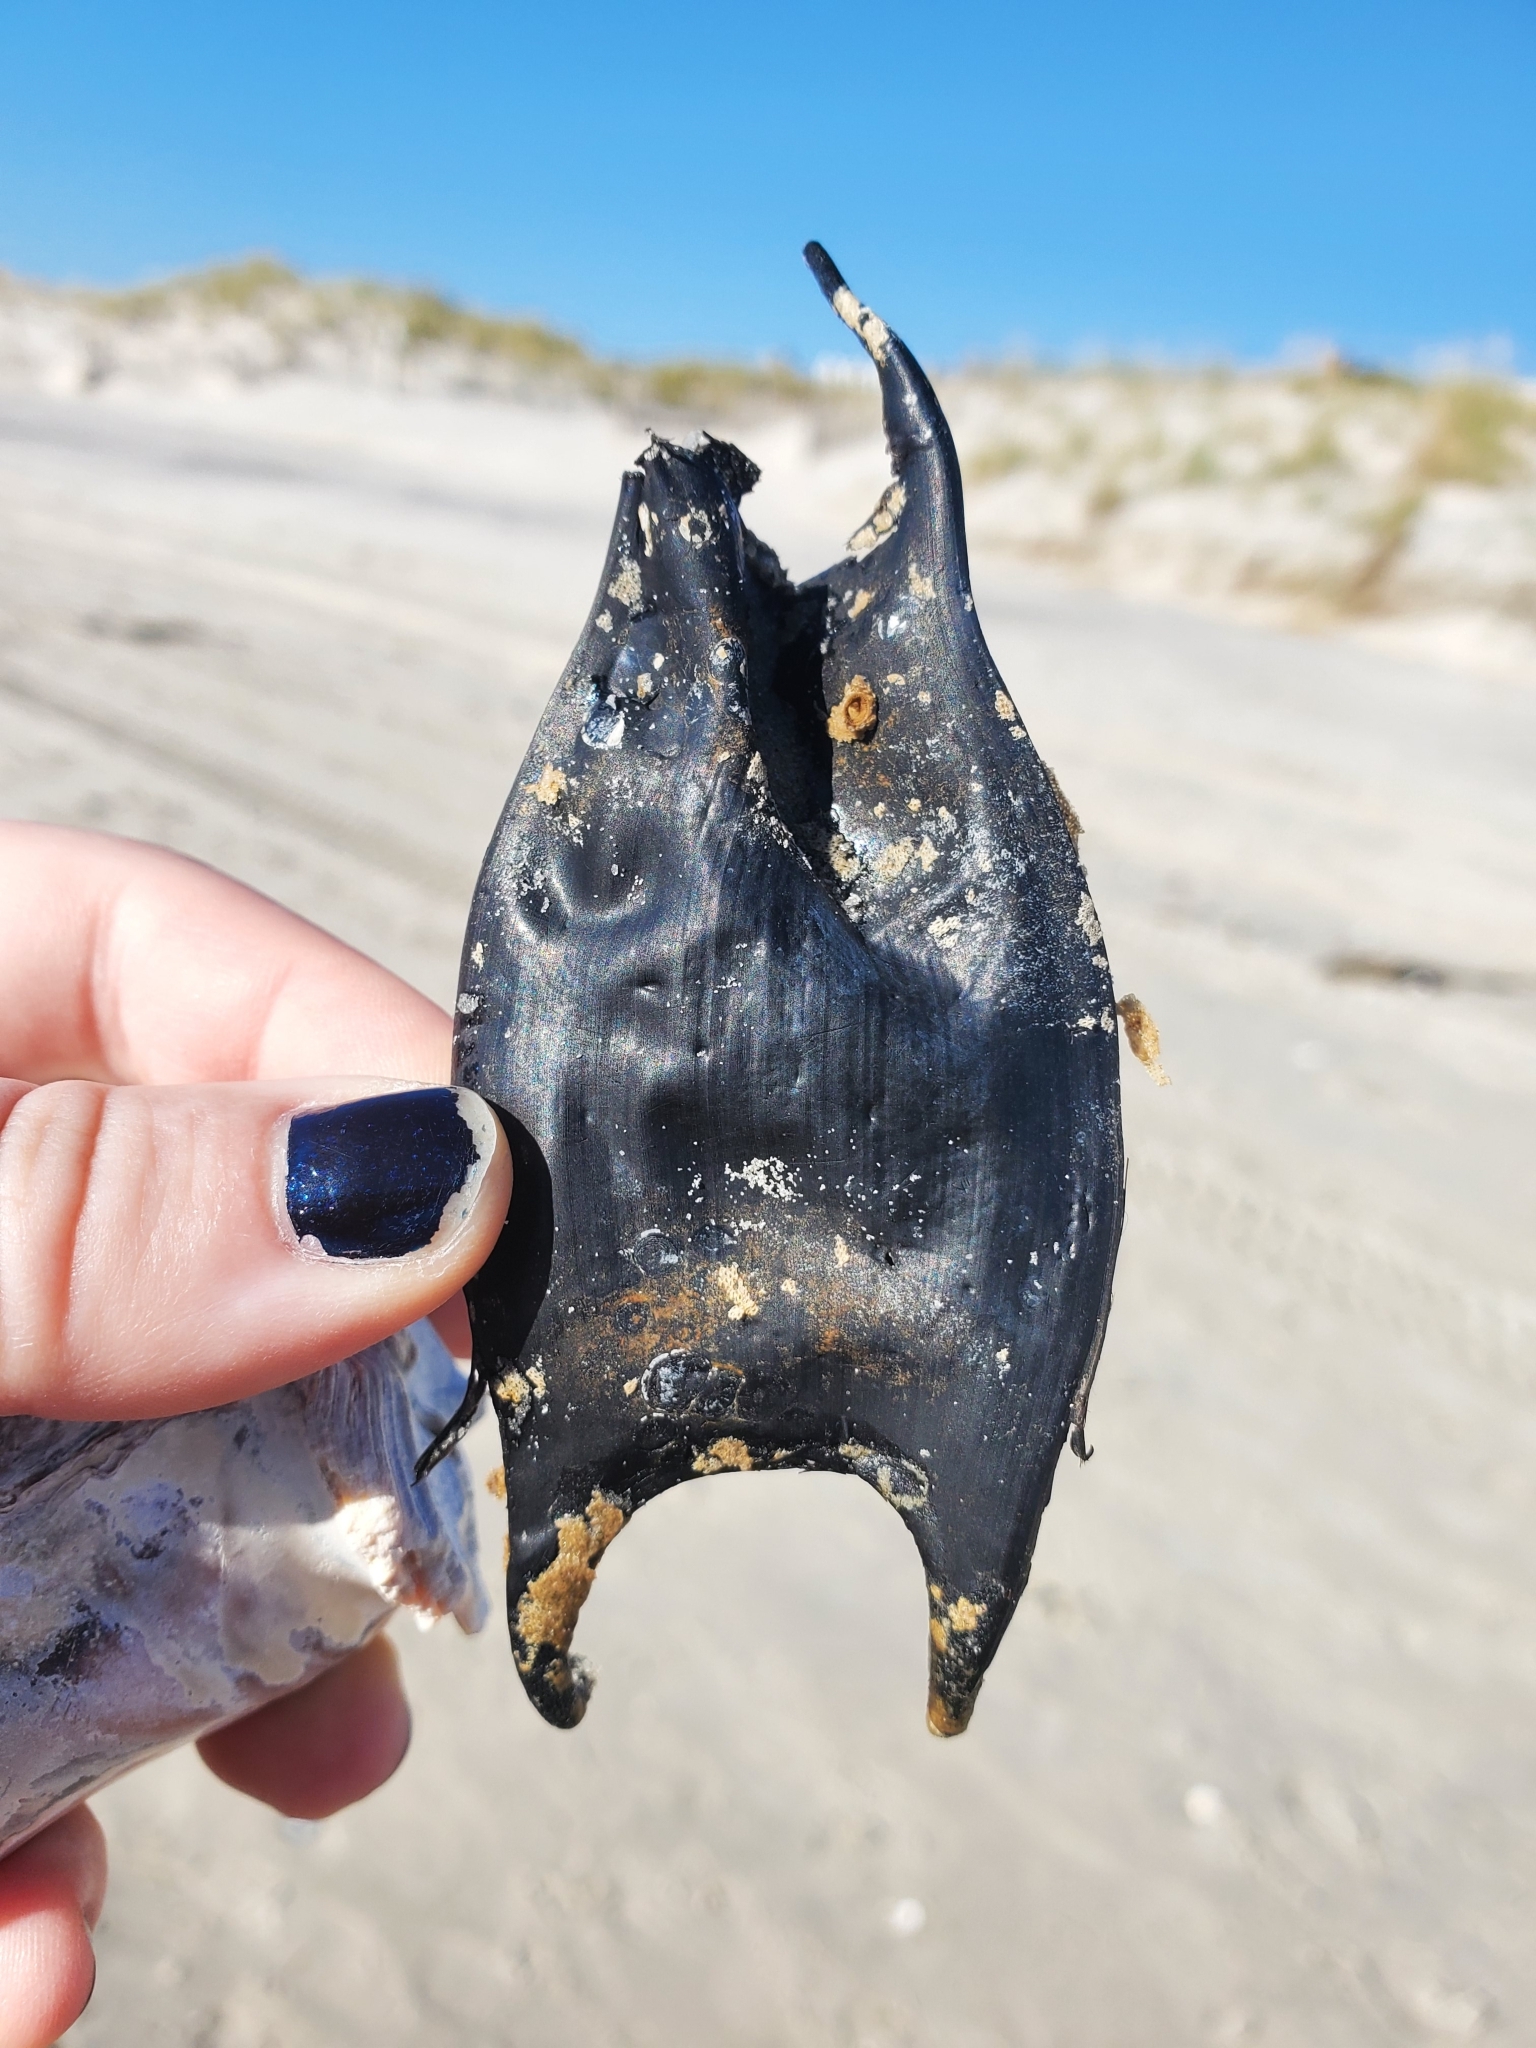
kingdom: Animalia
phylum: Chordata
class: Elasmobranchii
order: Rajiformes
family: Rajidae
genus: Raja
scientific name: Raja eglanteria
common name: Clearnose skate
